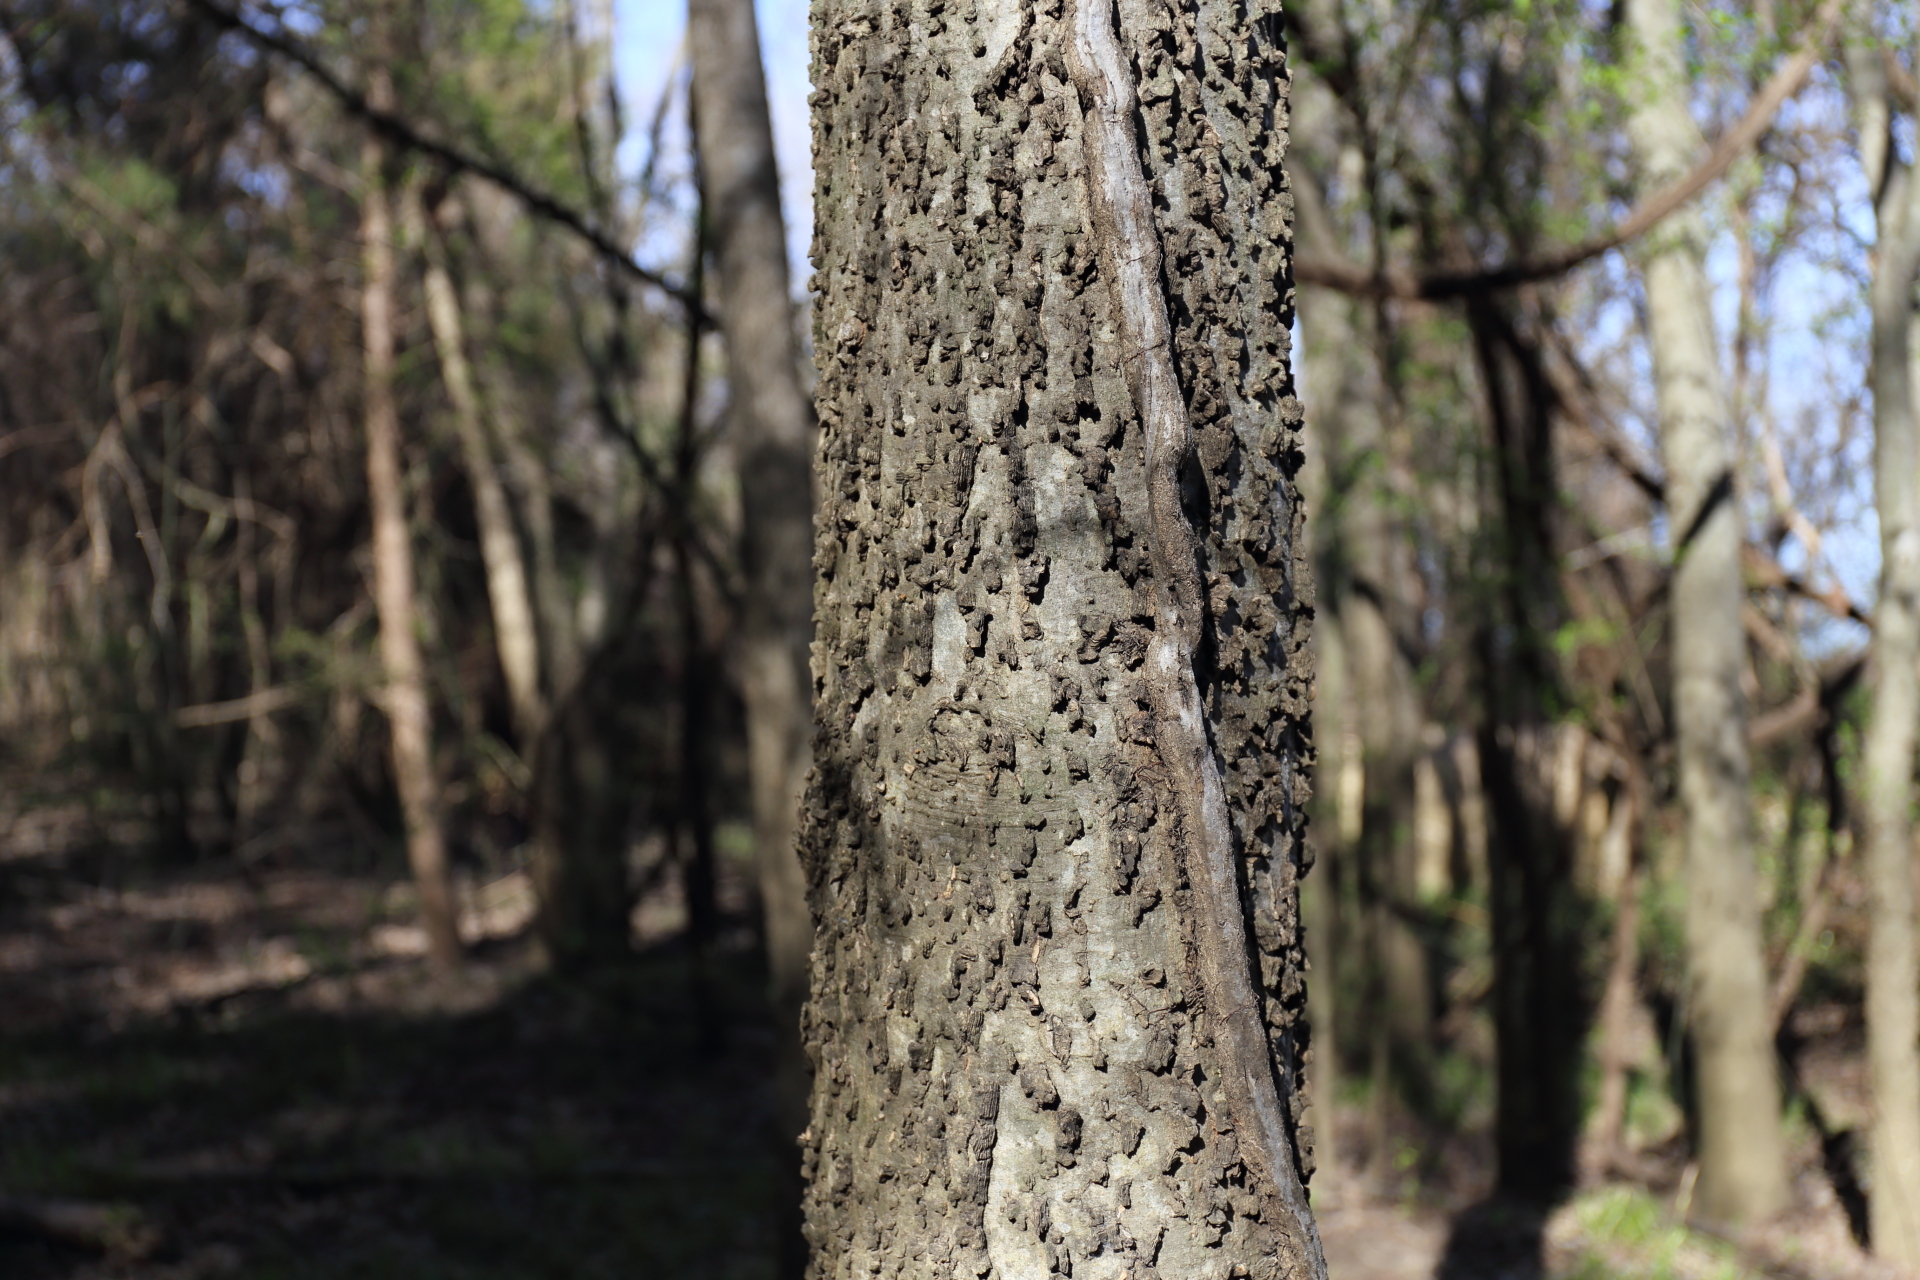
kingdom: Plantae
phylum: Tracheophyta
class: Magnoliopsida
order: Rosales
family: Cannabaceae
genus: Celtis
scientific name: Celtis laevigata
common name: Sugarberry
